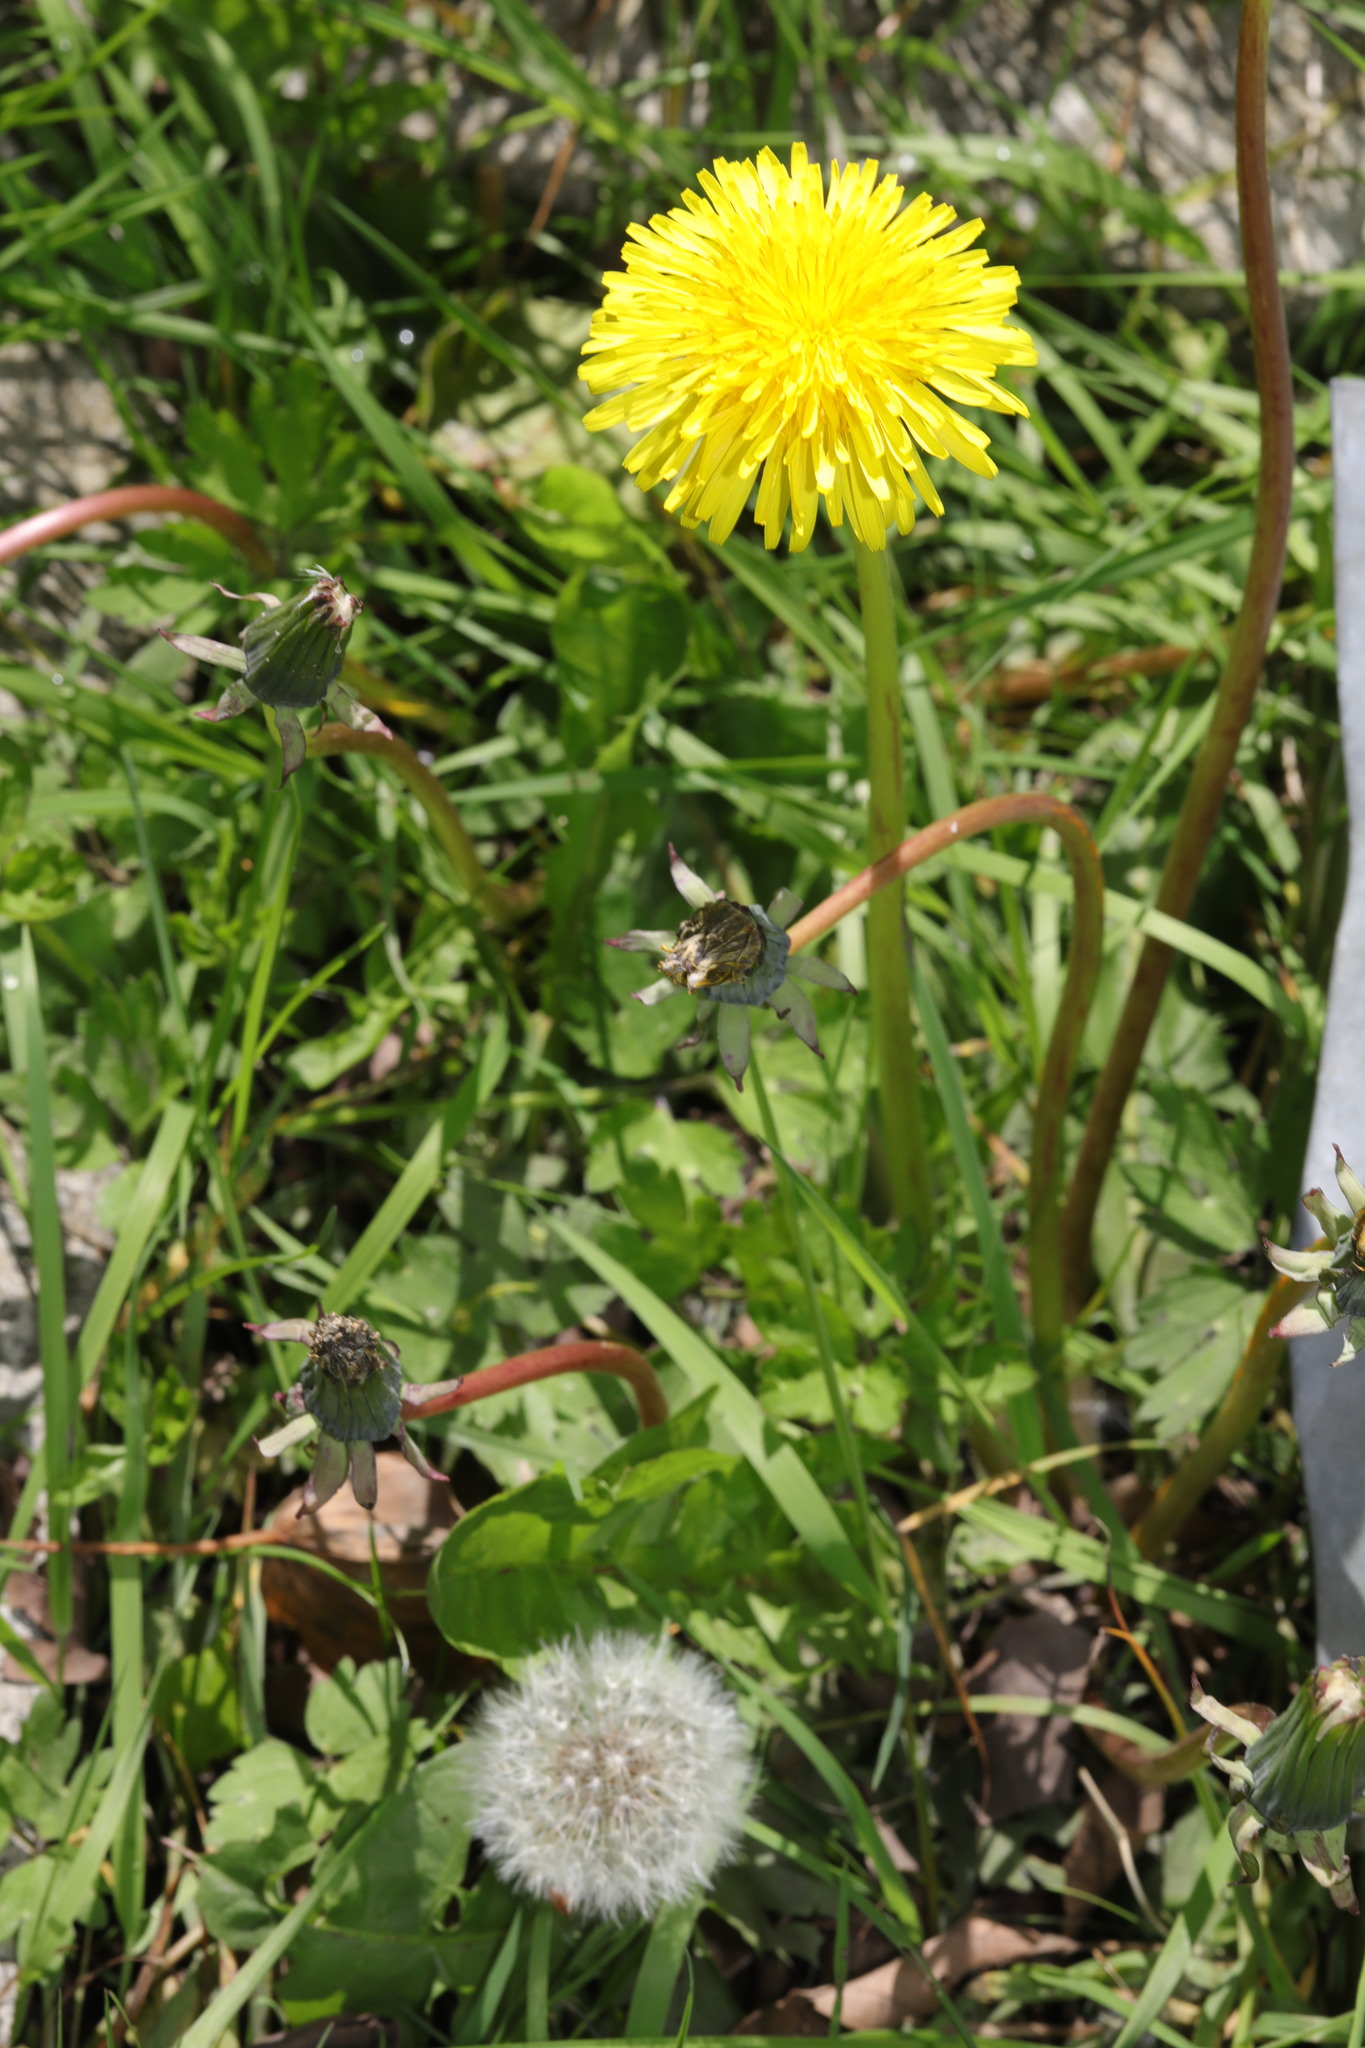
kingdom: Plantae
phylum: Tracheophyta
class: Magnoliopsida
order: Asterales
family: Asteraceae
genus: Taraxacum
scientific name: Taraxacum officinale
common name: Common dandelion
